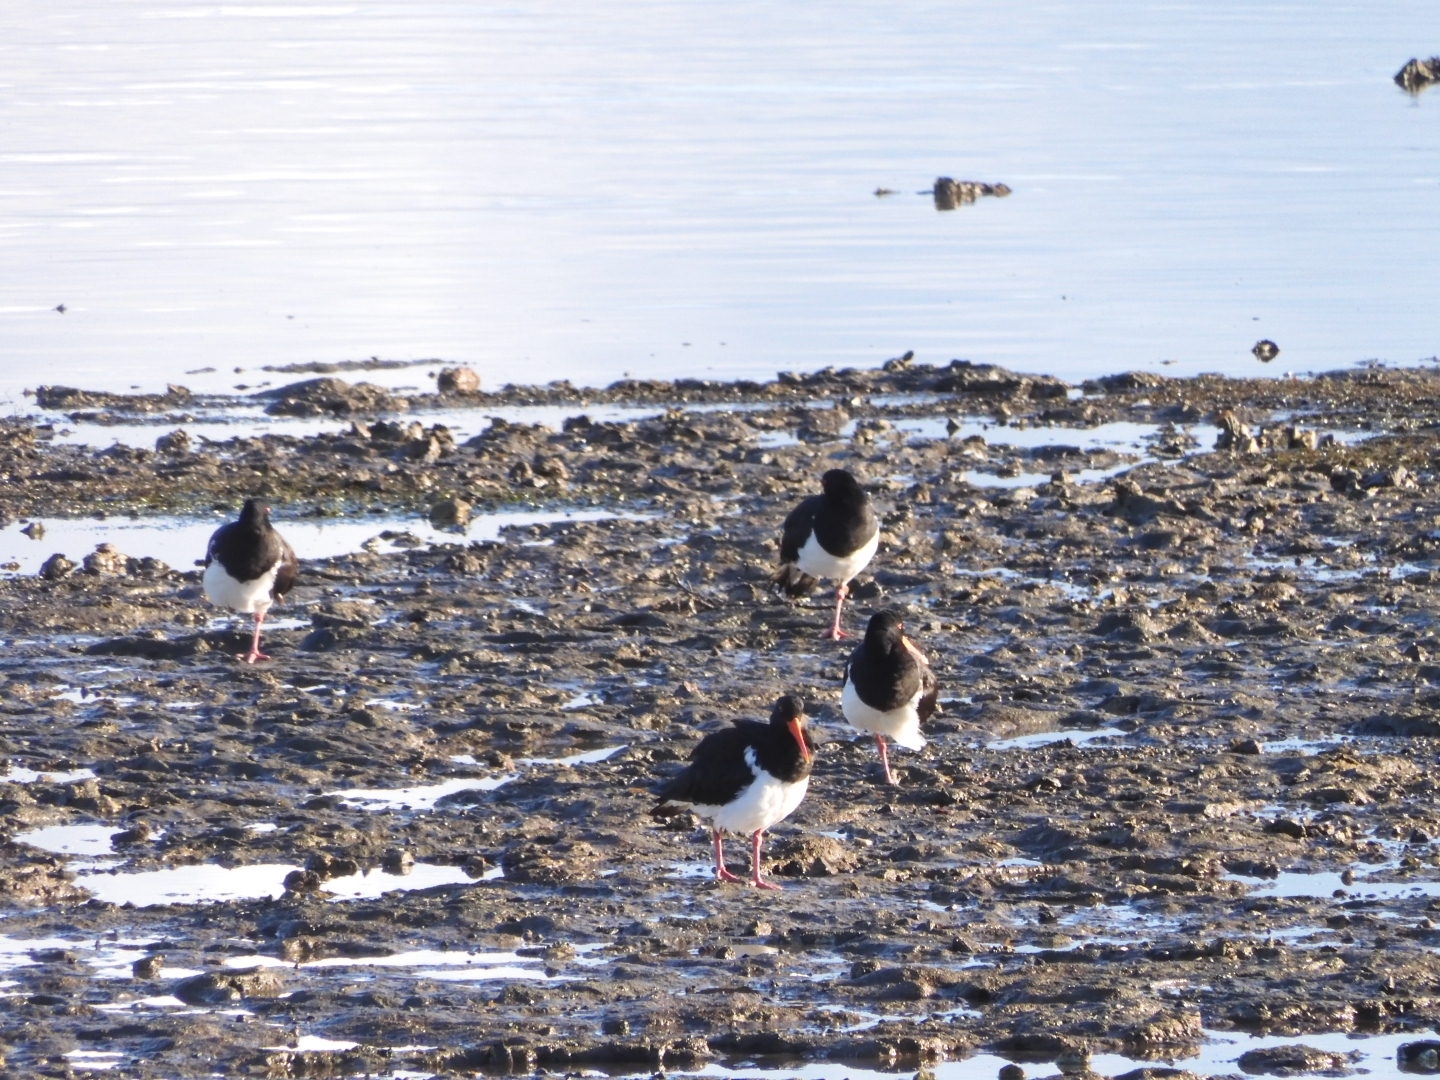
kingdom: Animalia
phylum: Chordata
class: Aves
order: Charadriiformes
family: Haematopodidae
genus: Haematopus
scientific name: Haematopus longirostris
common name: Pied oystercatcher
